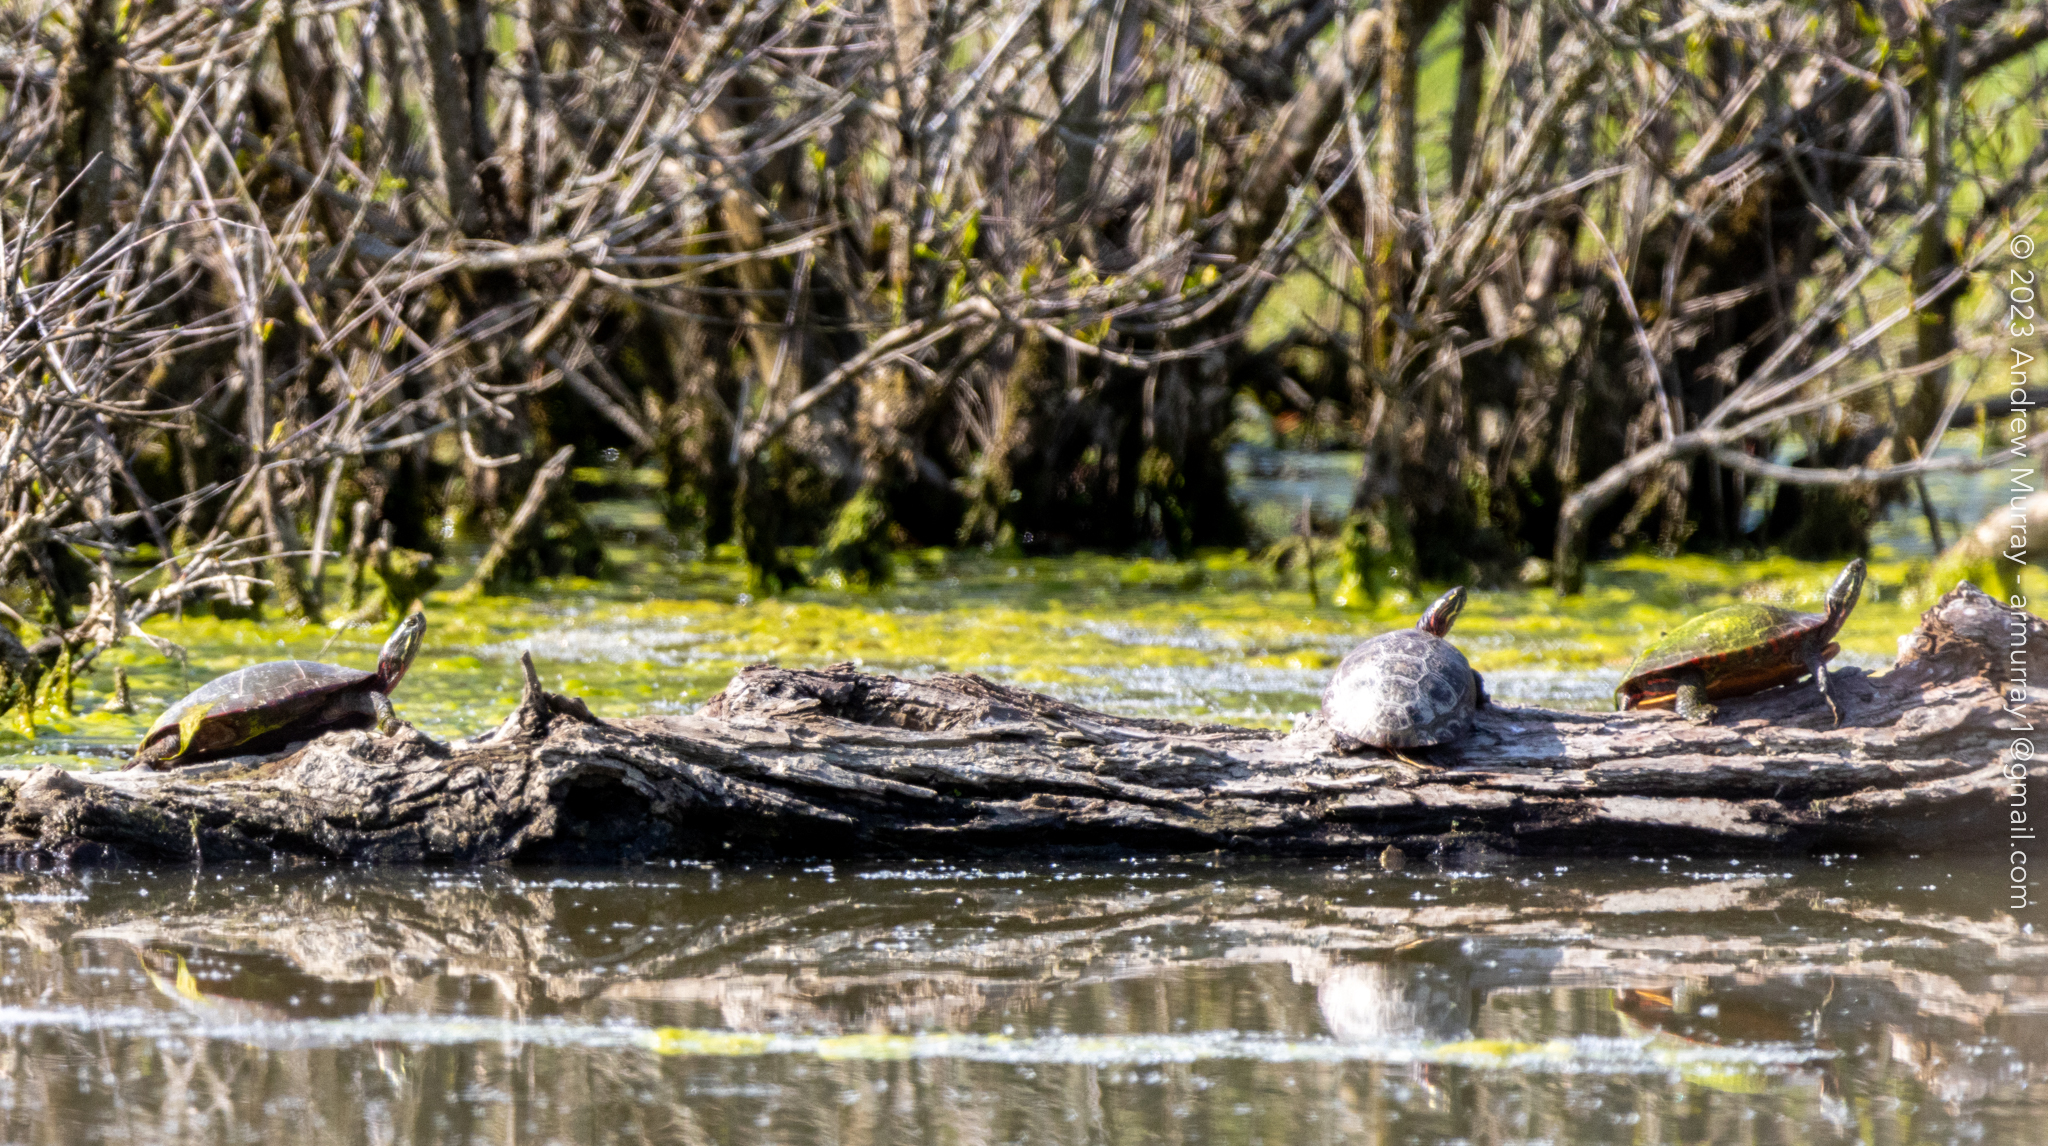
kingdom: Animalia
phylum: Chordata
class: Testudines
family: Emydidae
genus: Chrysemys
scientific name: Chrysemys picta
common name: Painted turtle
